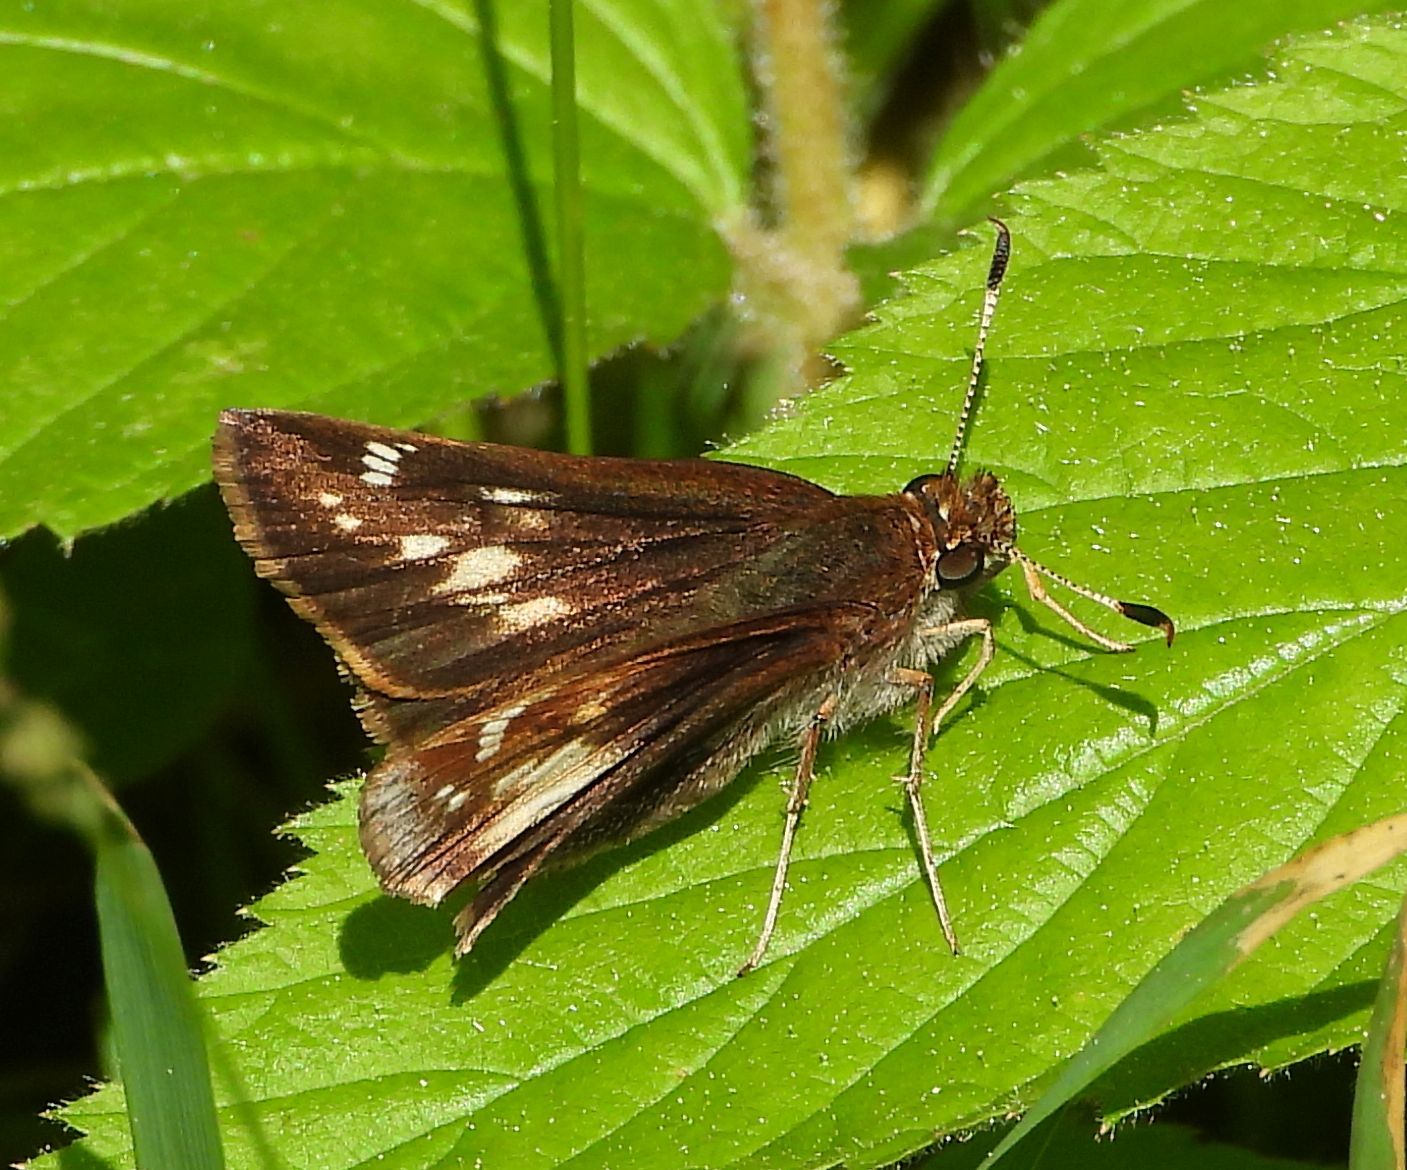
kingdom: Animalia
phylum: Arthropoda
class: Insecta
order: Lepidoptera
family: Hesperiidae
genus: Lon
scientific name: Lon hobomok
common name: Hobomok skipper
